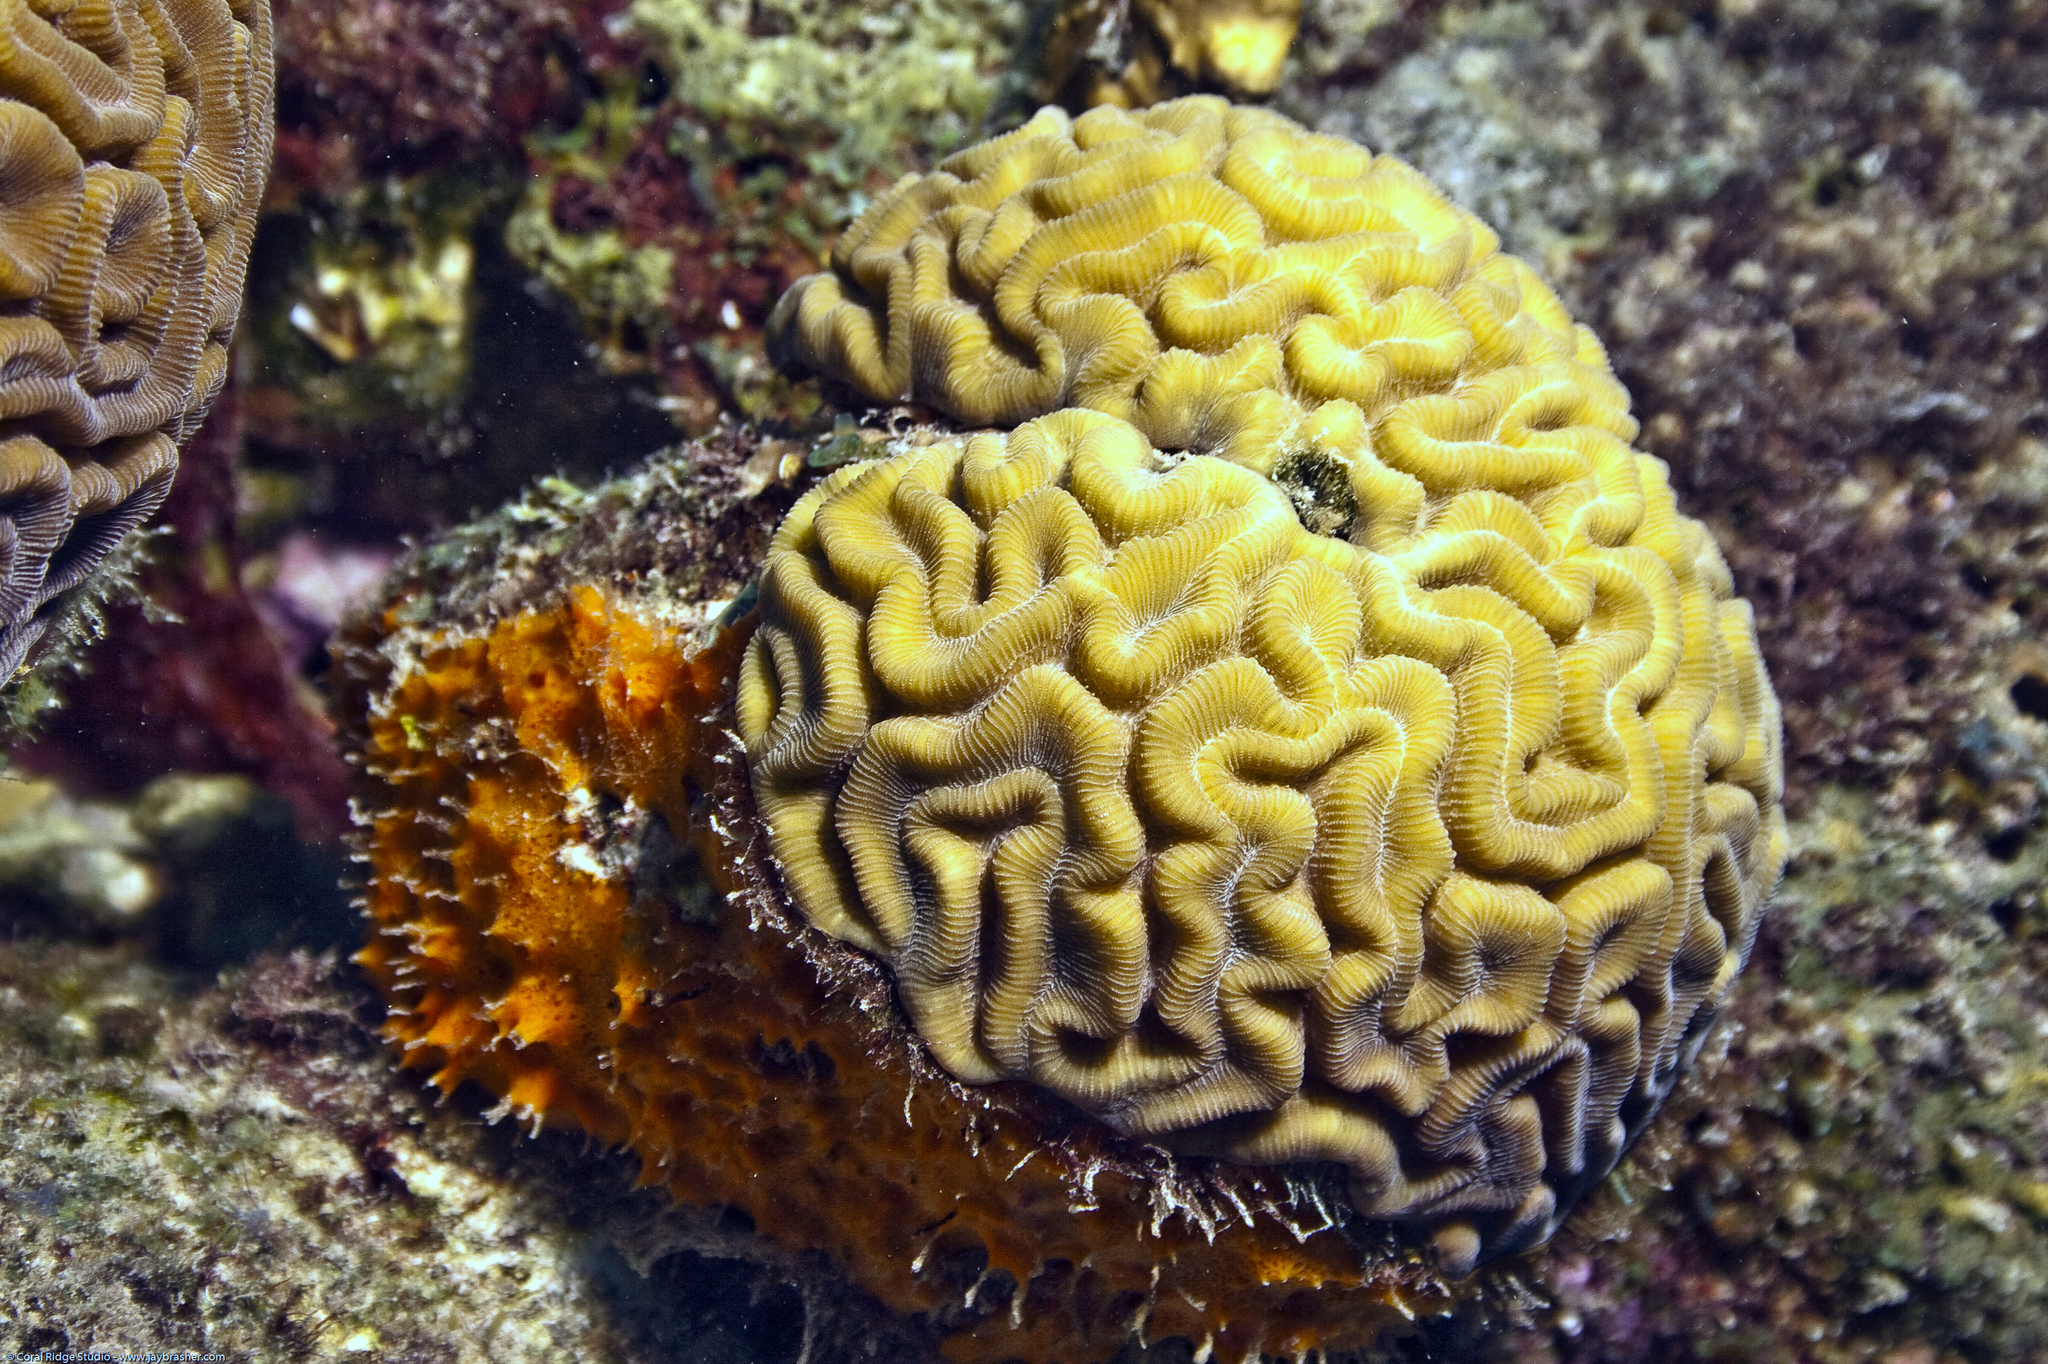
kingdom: Animalia
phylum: Cnidaria
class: Anthozoa
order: Scleractinia
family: Faviidae
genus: Diploria
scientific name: Diploria labyrinthiformis
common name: Grooved brain coral
